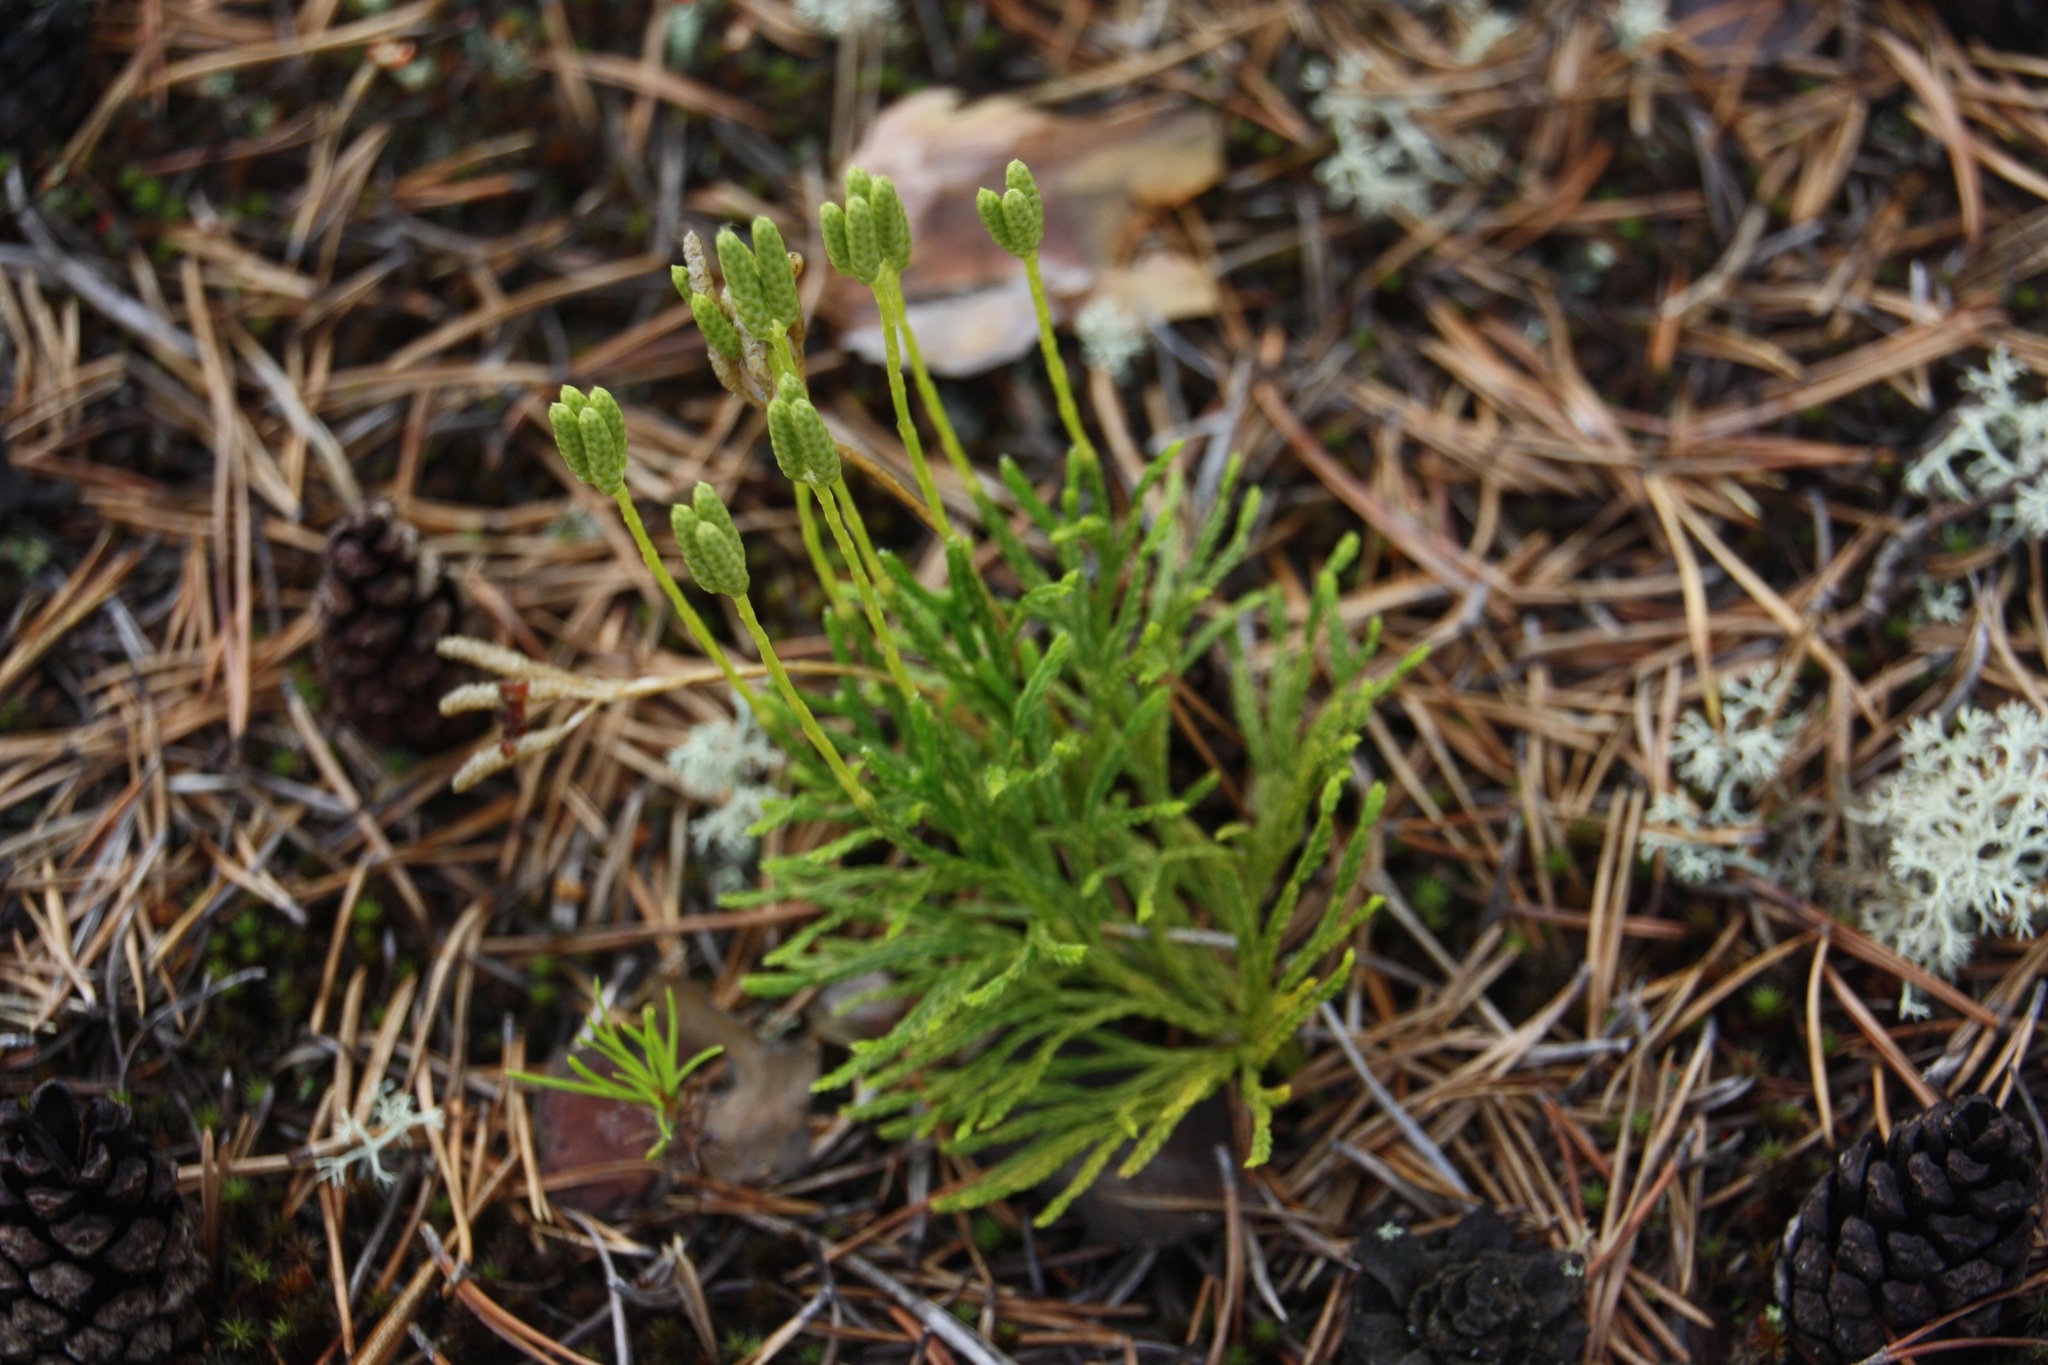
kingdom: Plantae
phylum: Tracheophyta
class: Lycopodiopsida
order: Lycopodiales
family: Lycopodiaceae
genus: Diphasiastrum
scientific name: Diphasiastrum complanatum
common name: Northern running-pine
